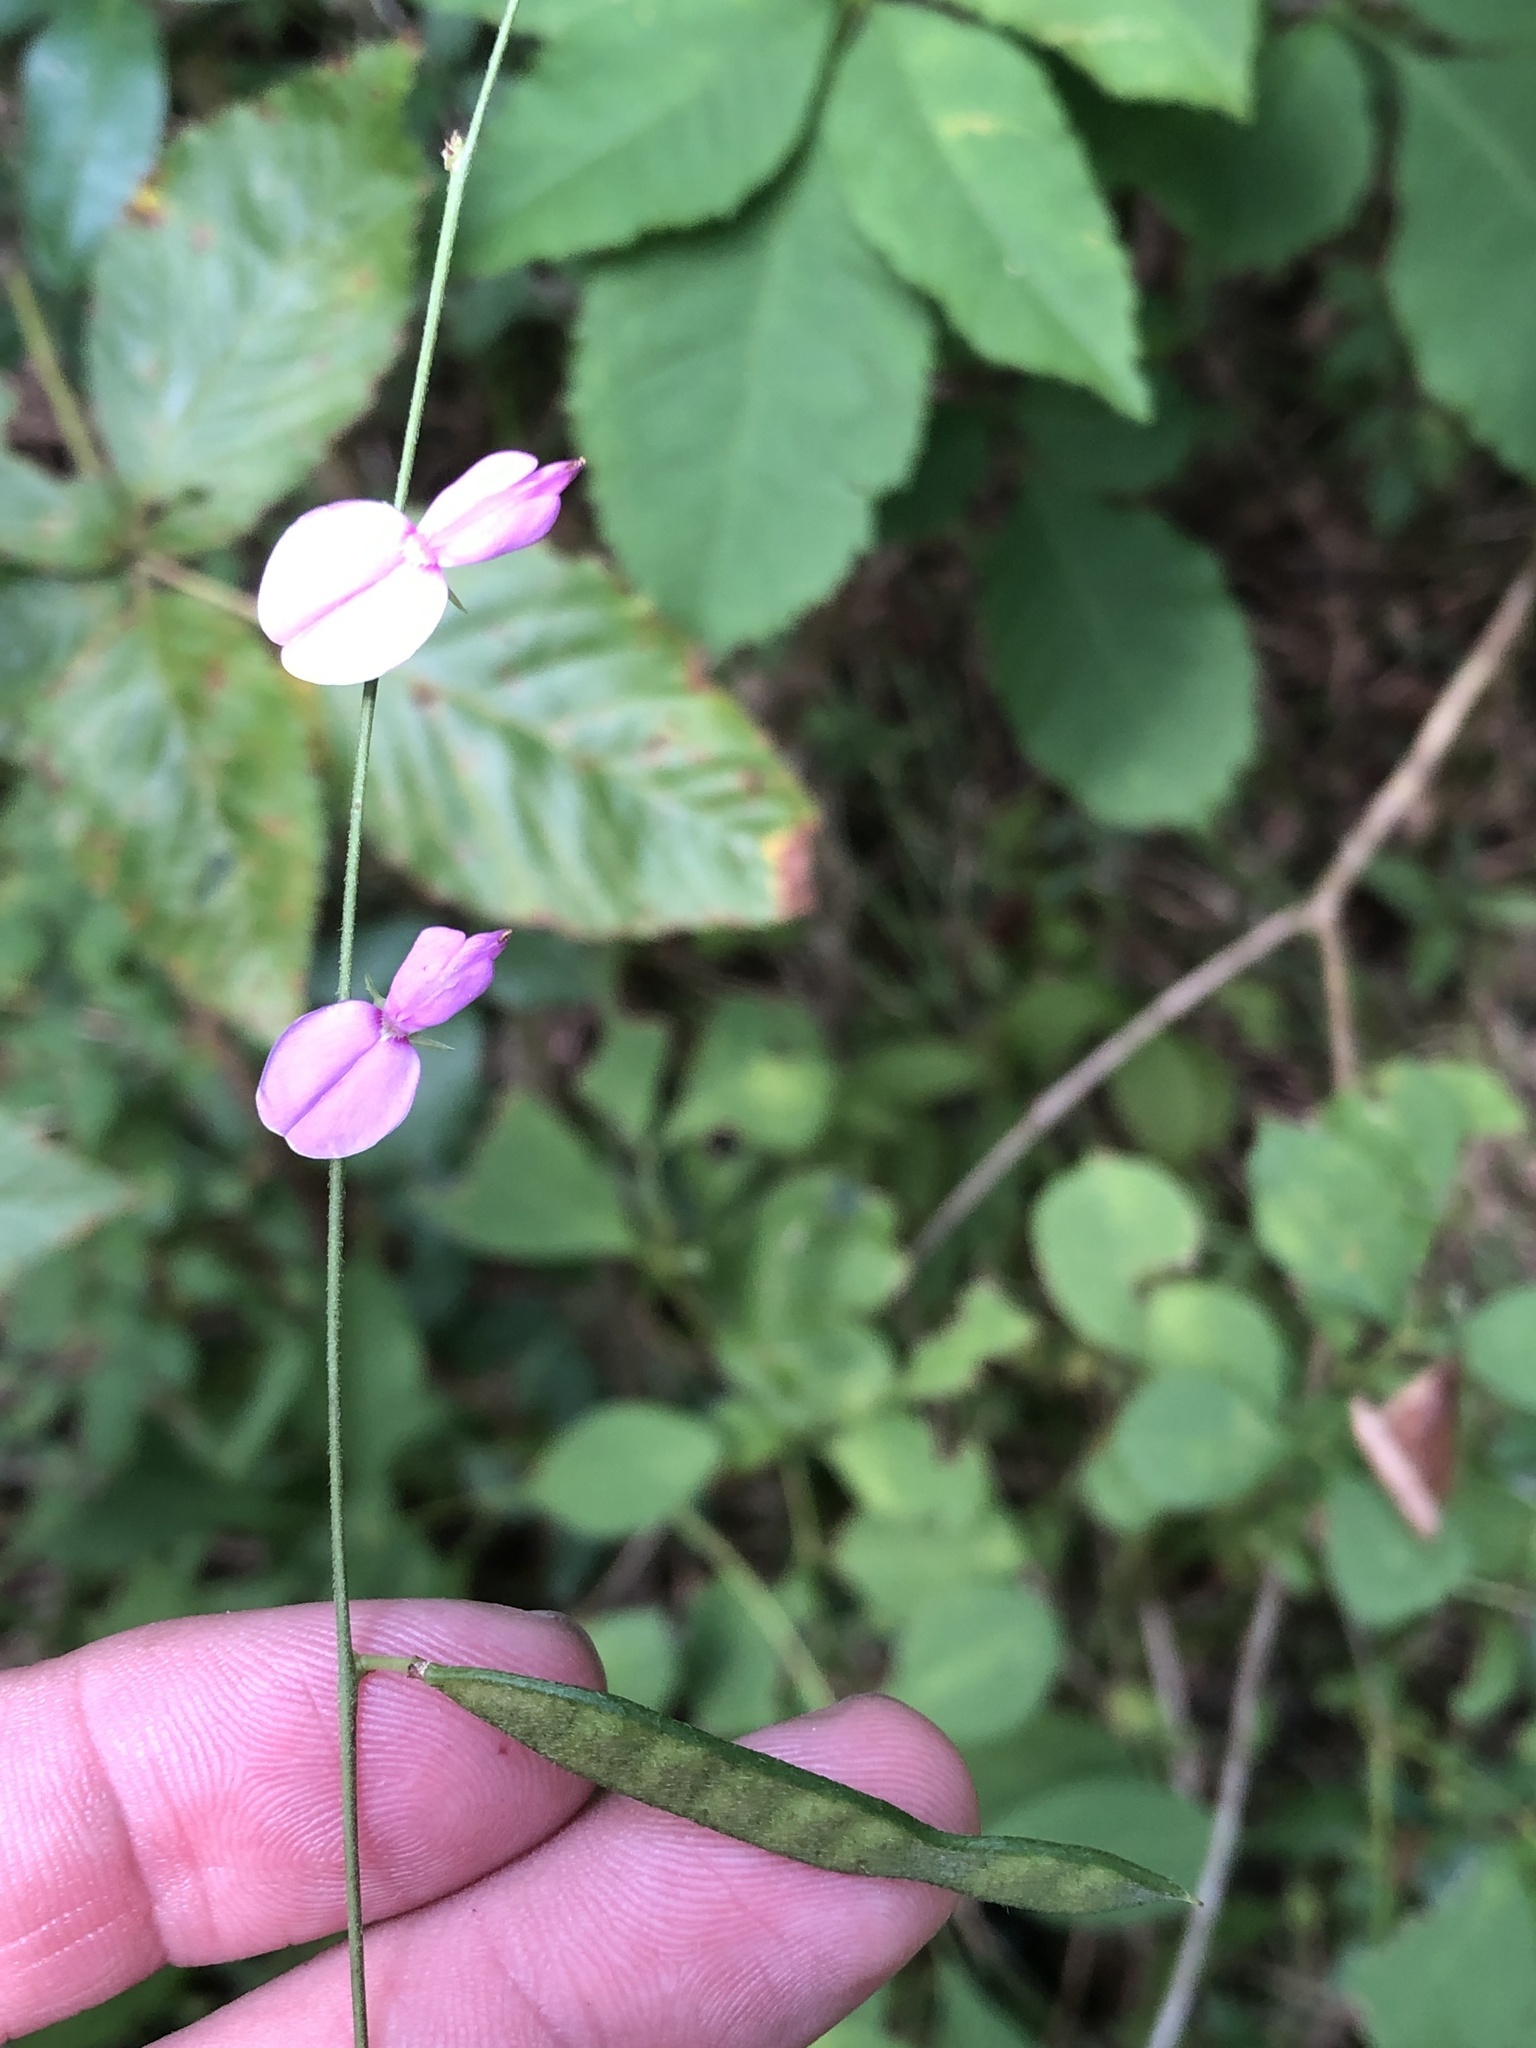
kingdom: Plantae
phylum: Tracheophyta
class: Magnoliopsida
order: Fabales
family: Fabaceae
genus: Galactia
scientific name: Galactia regularis
